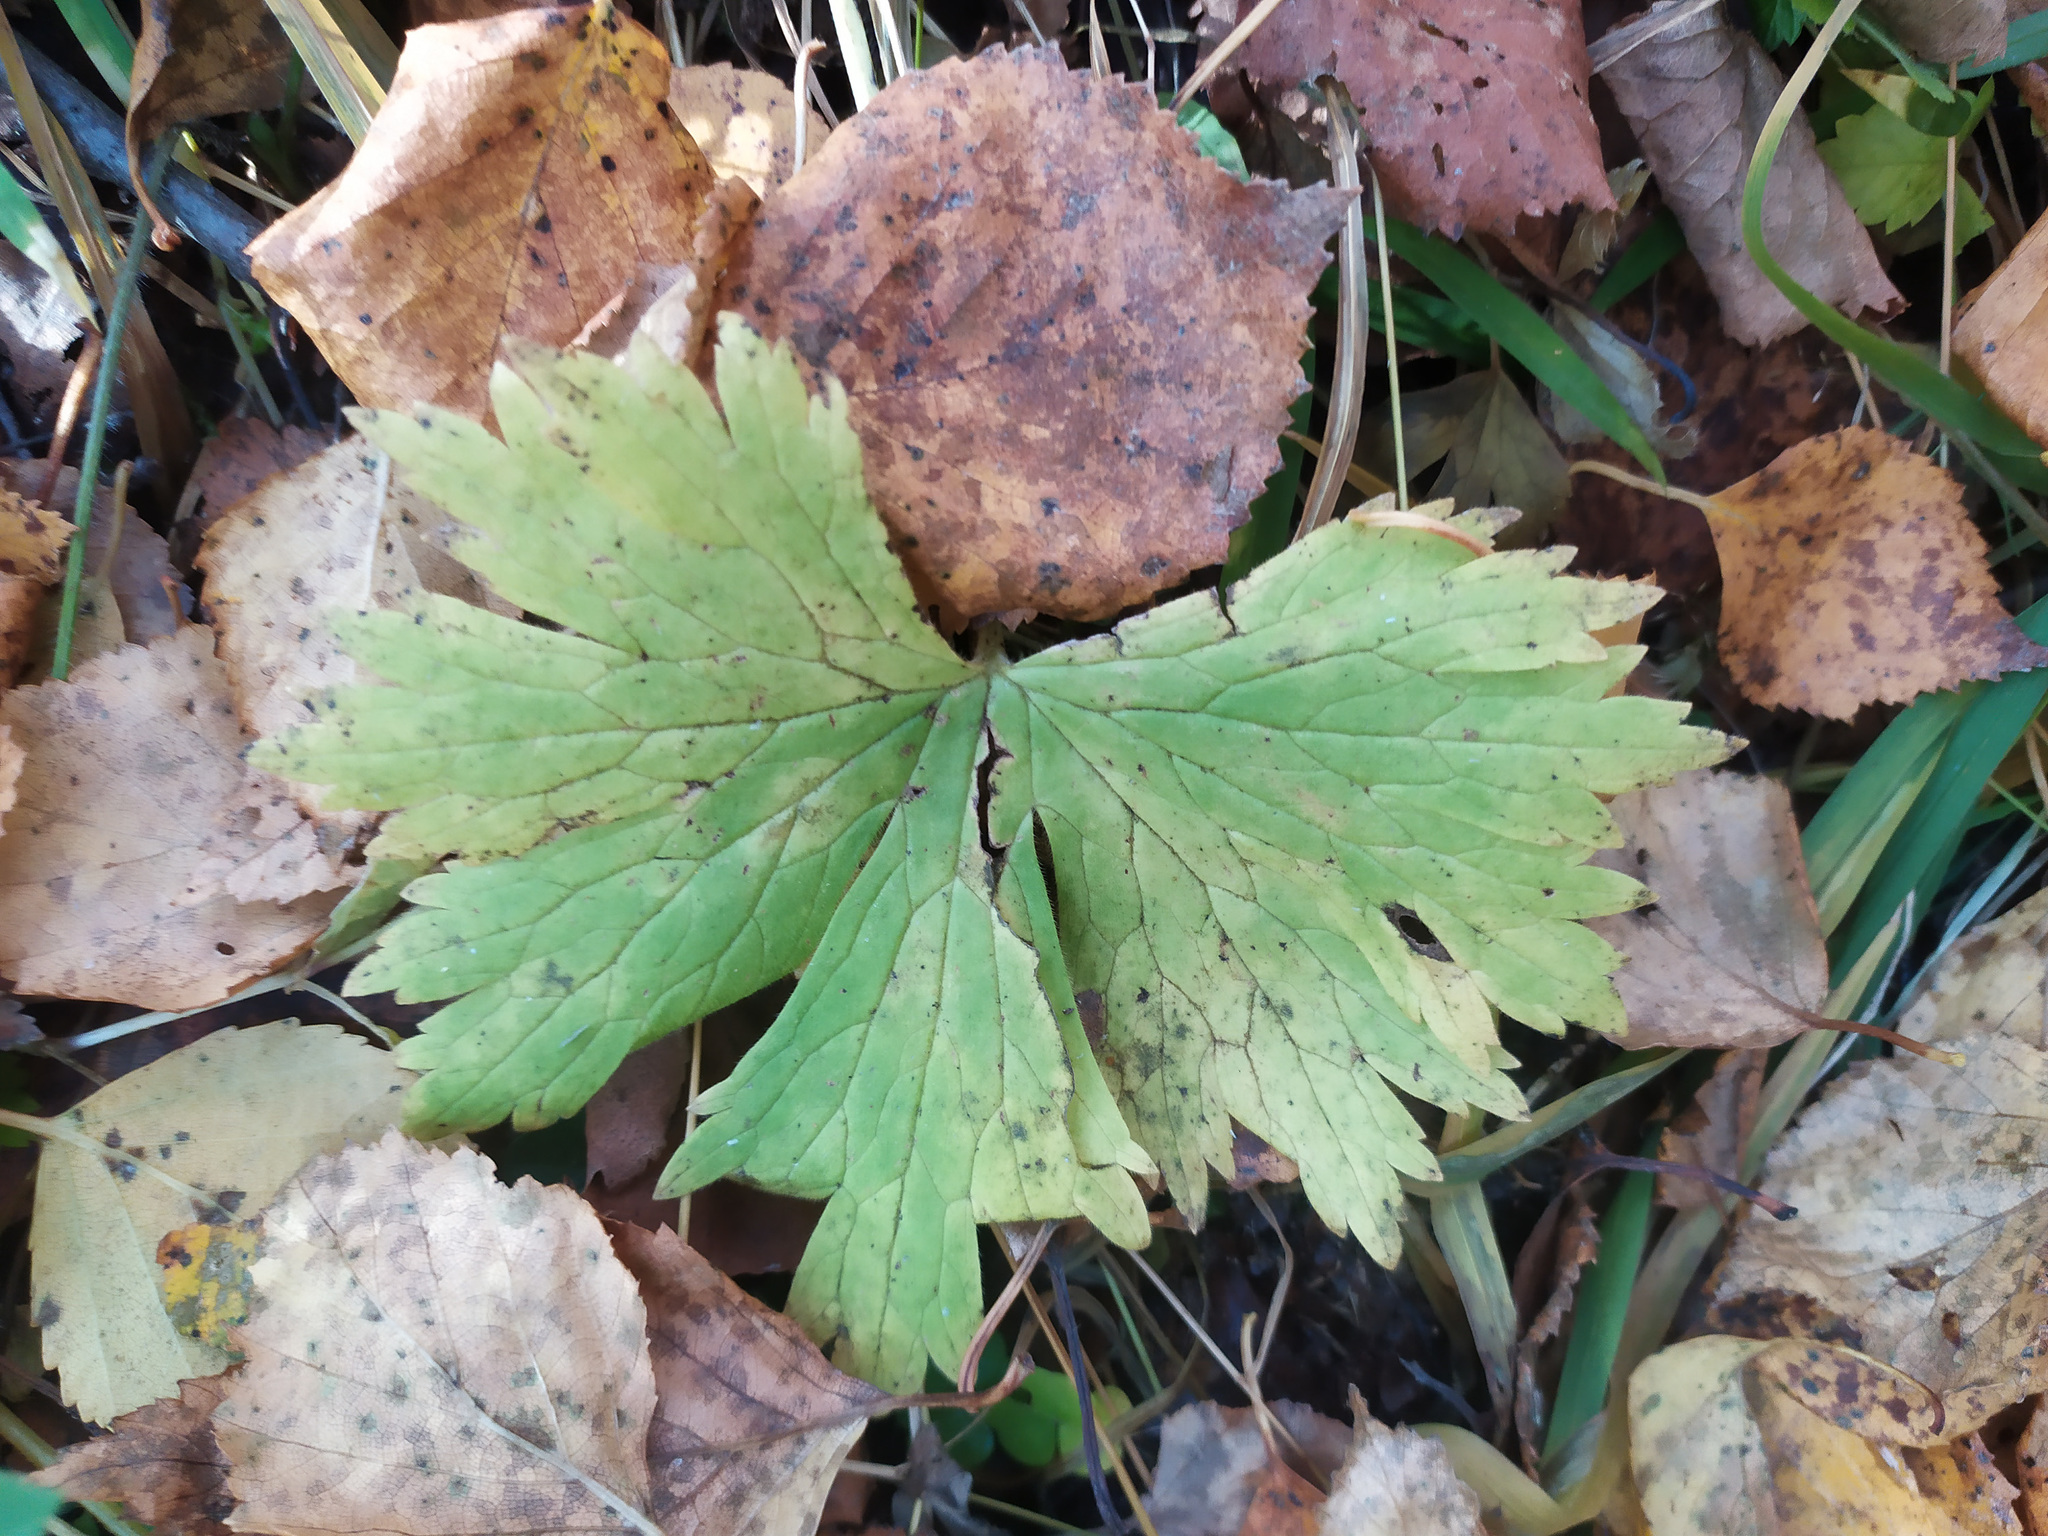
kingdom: Plantae
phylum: Tracheophyta
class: Magnoliopsida
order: Ranunculales
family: Ranunculaceae
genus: Aconitum
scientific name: Aconitum septentrionale
